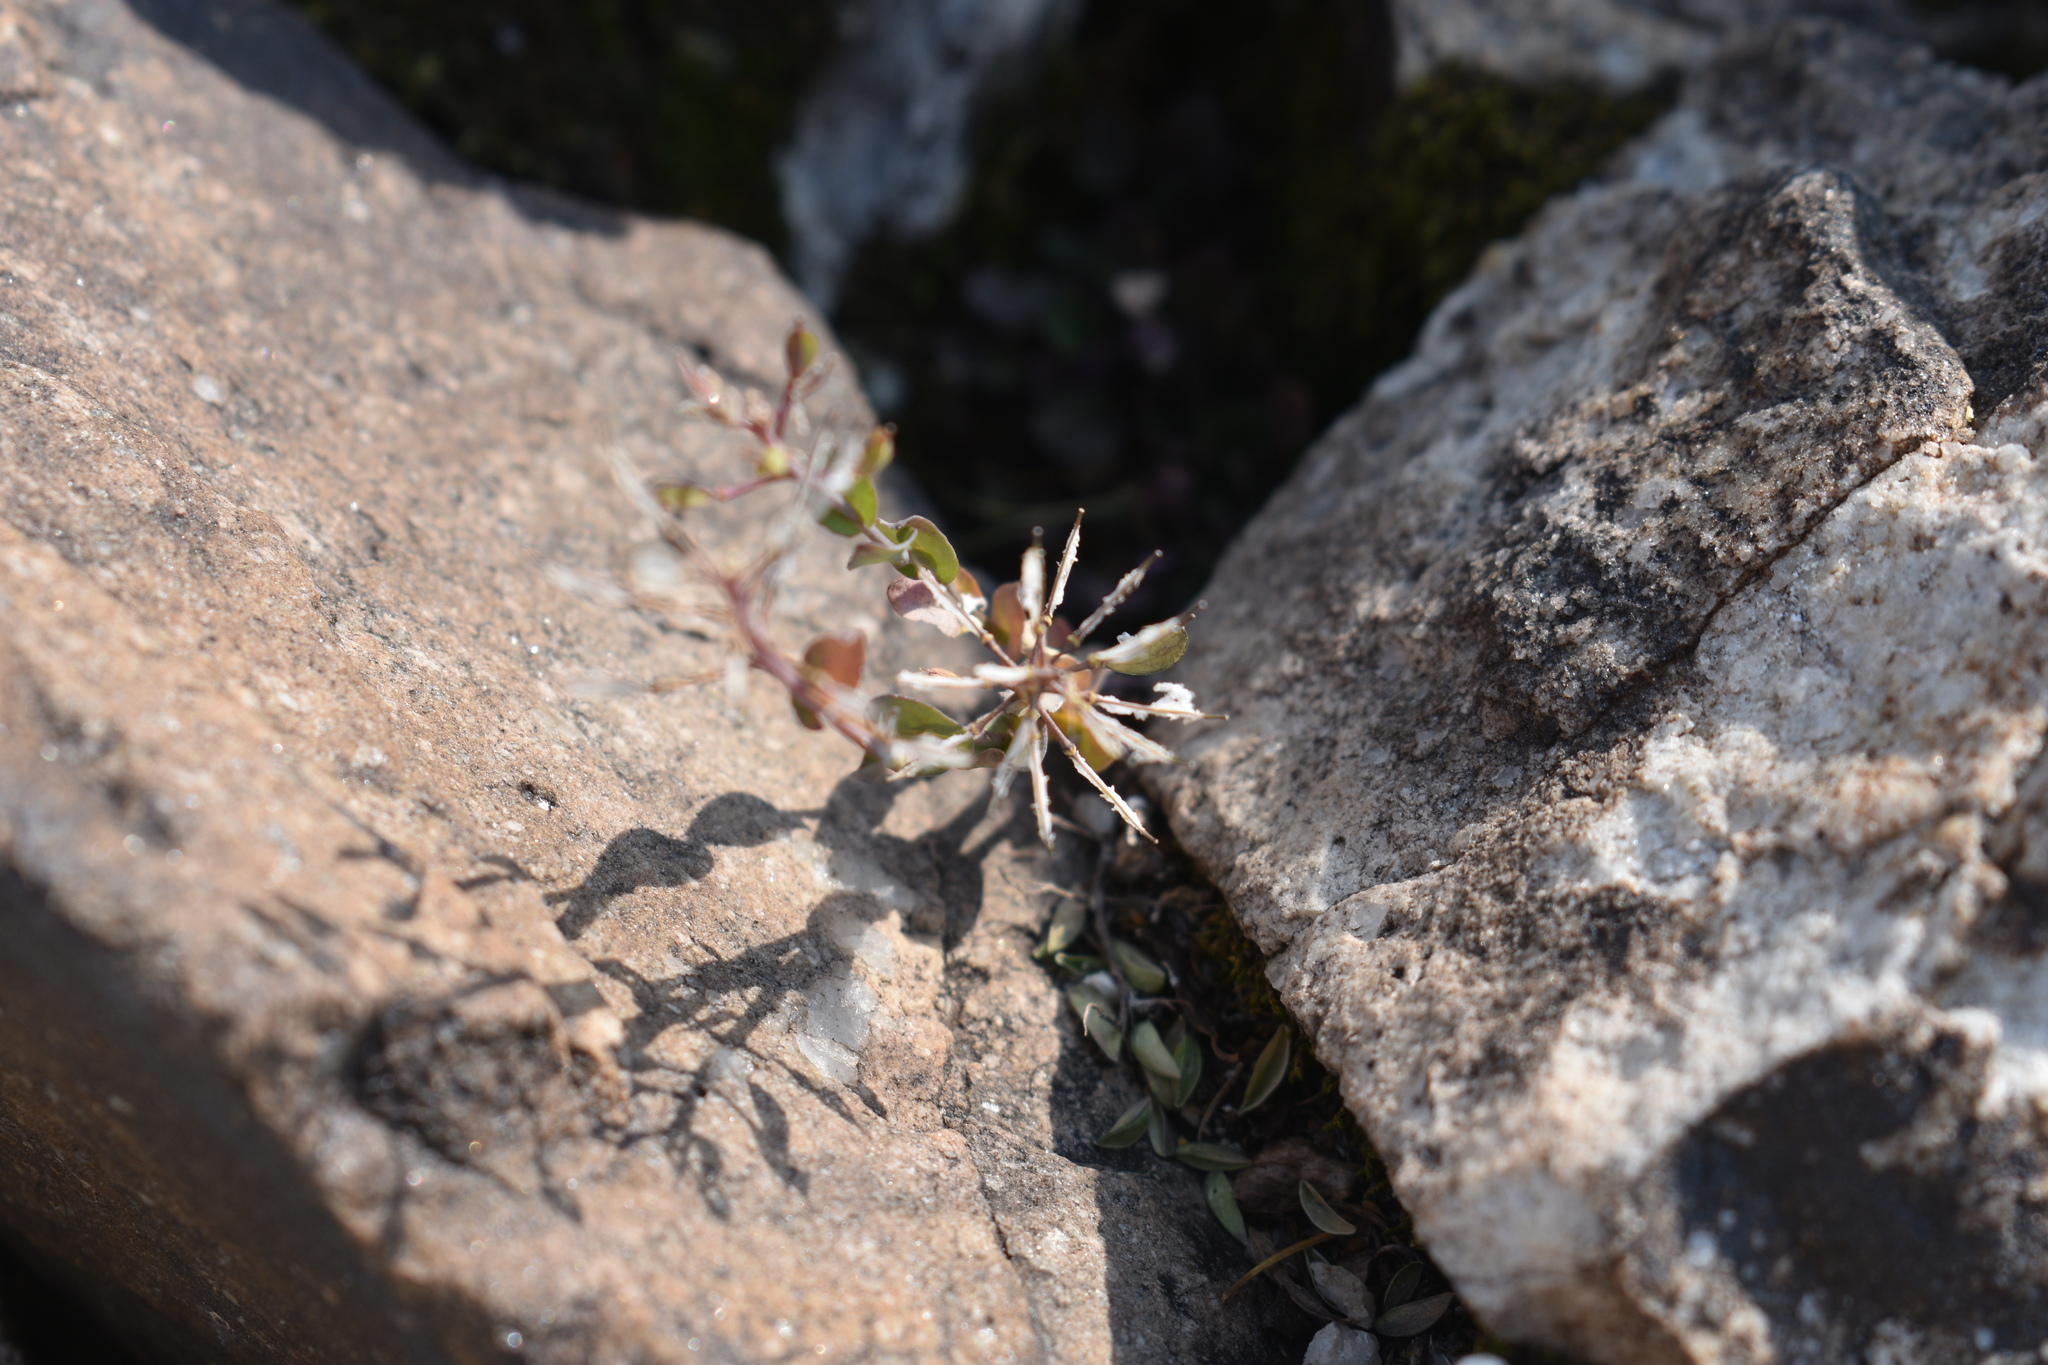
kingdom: Plantae
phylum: Tracheophyta
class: Magnoliopsida
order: Brassicales
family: Brassicaceae
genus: Noccaea
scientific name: Noccaea fendleri
